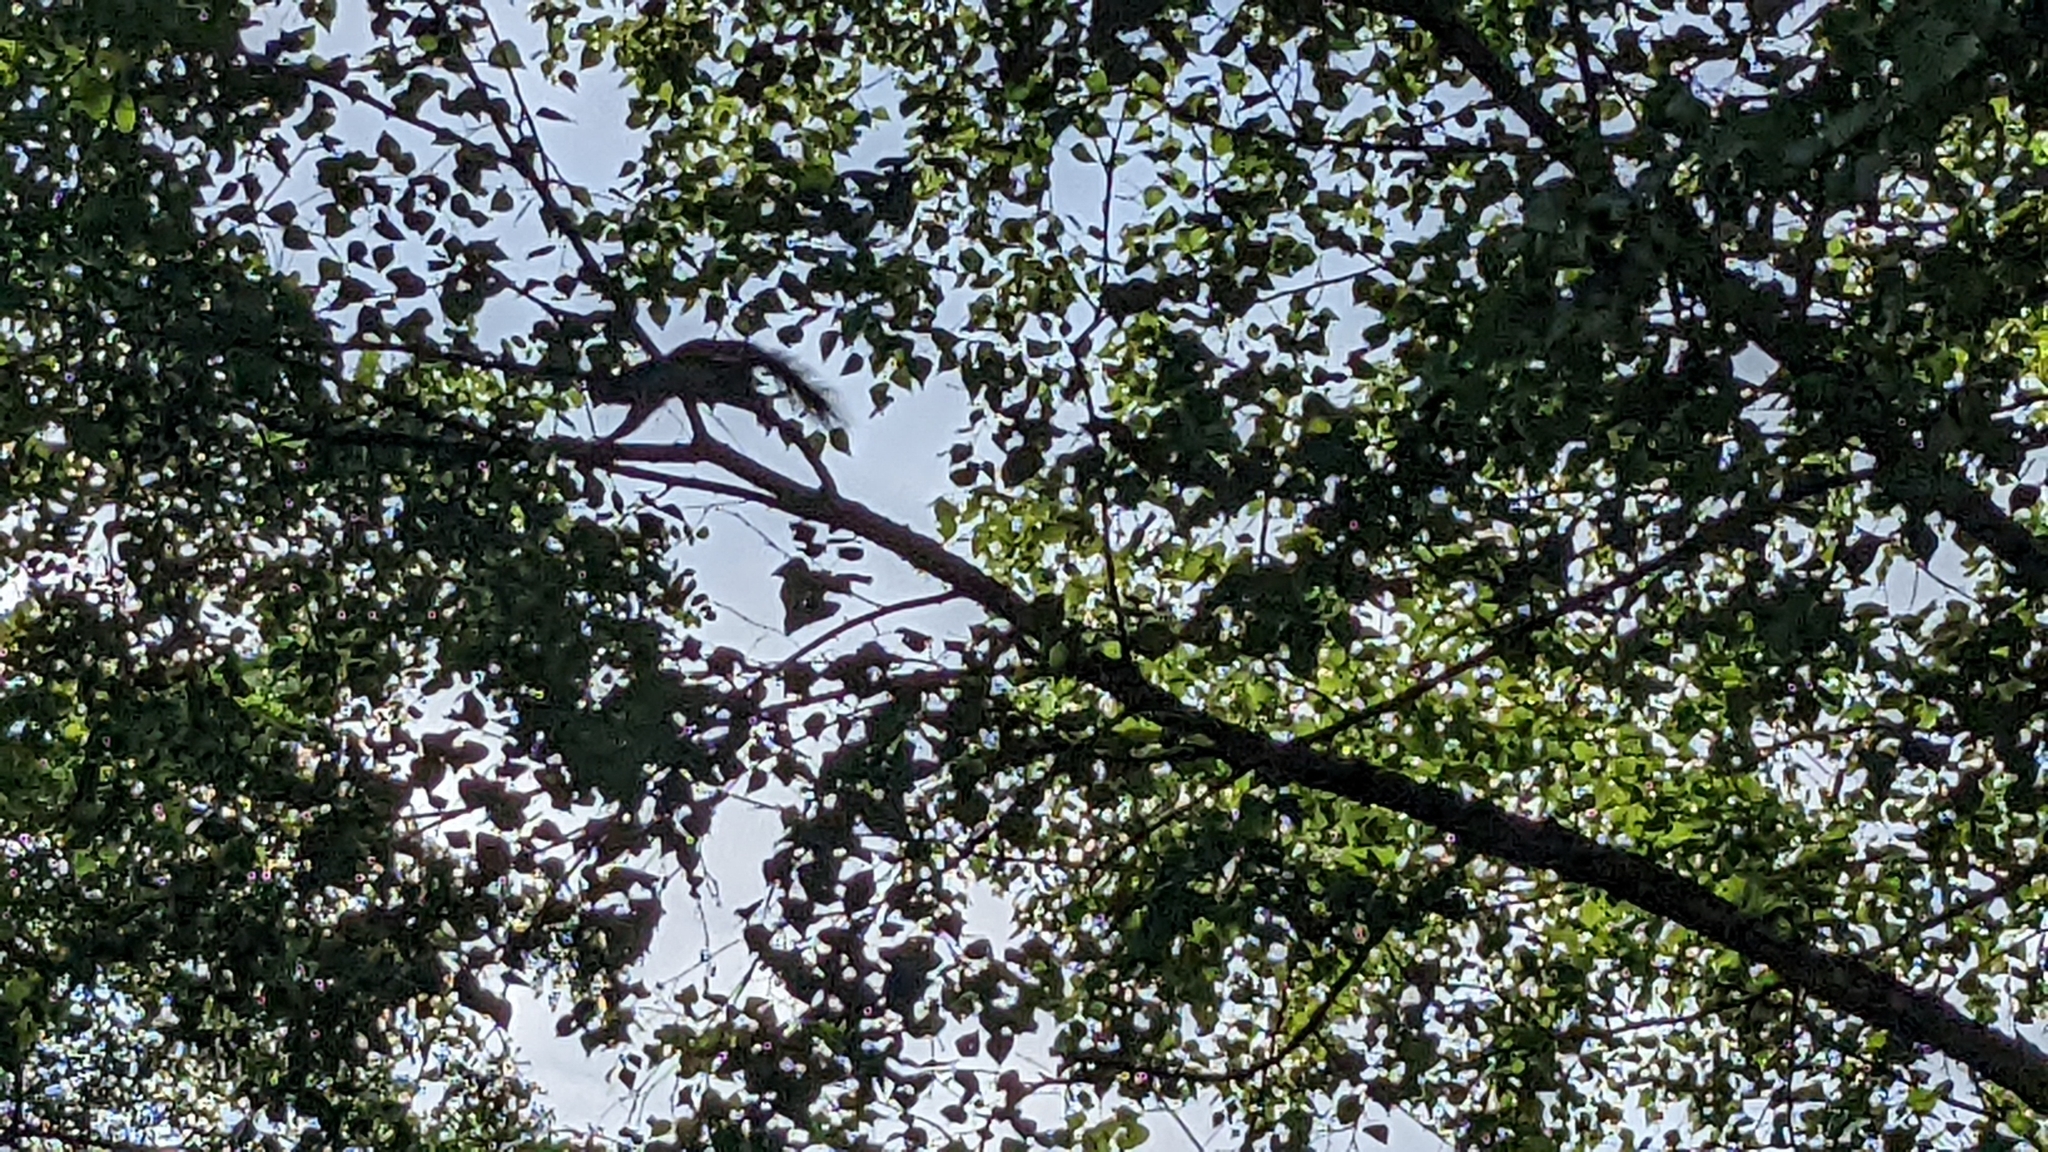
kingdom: Animalia
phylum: Chordata
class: Mammalia
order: Rodentia
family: Sciuridae
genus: Sciurus
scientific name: Sciurus vulgaris
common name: Eurasian red squirrel
